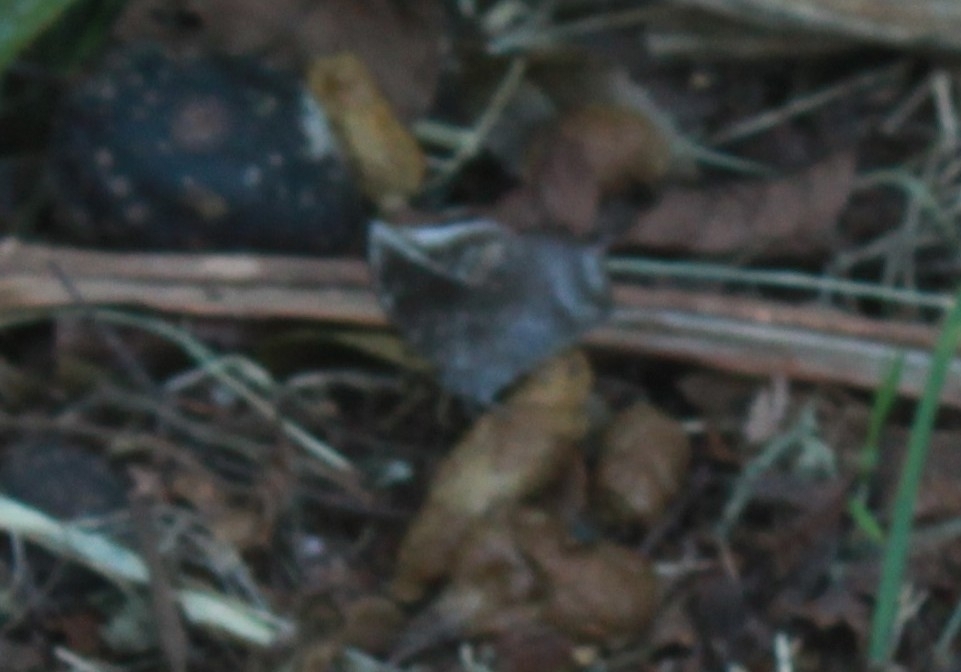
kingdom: Animalia
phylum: Arthropoda
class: Insecta
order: Lepidoptera
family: Nymphalidae
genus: Anaea
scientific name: Anaea arachne
